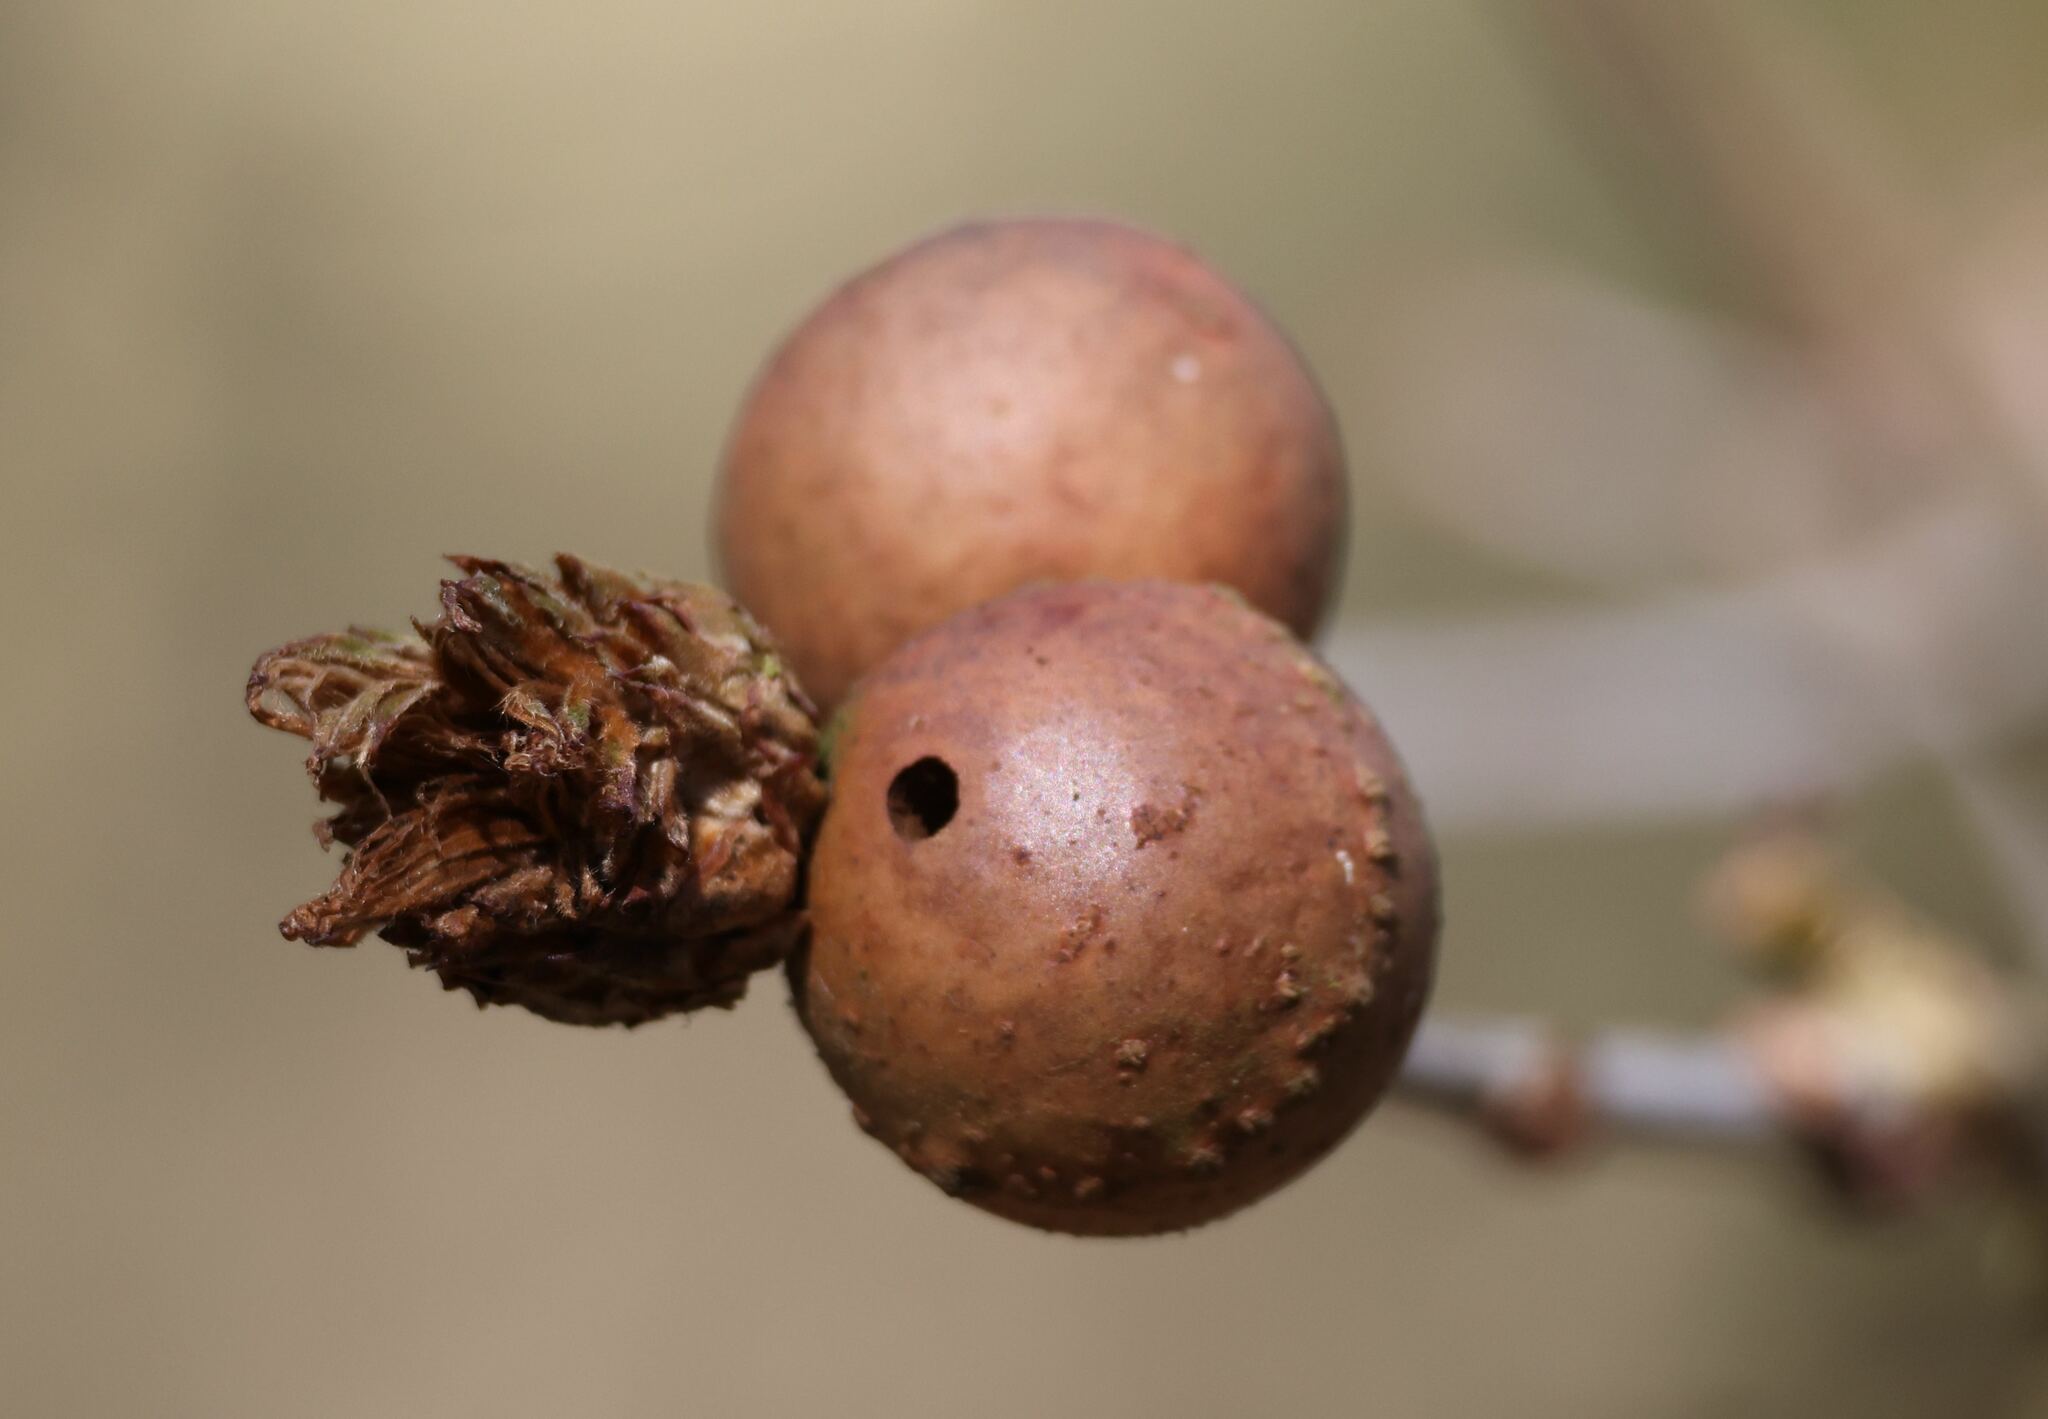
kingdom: Animalia
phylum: Arthropoda
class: Insecta
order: Hymenoptera
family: Cynipidae
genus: Andricus
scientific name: Andricus kollari
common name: Marble gall
